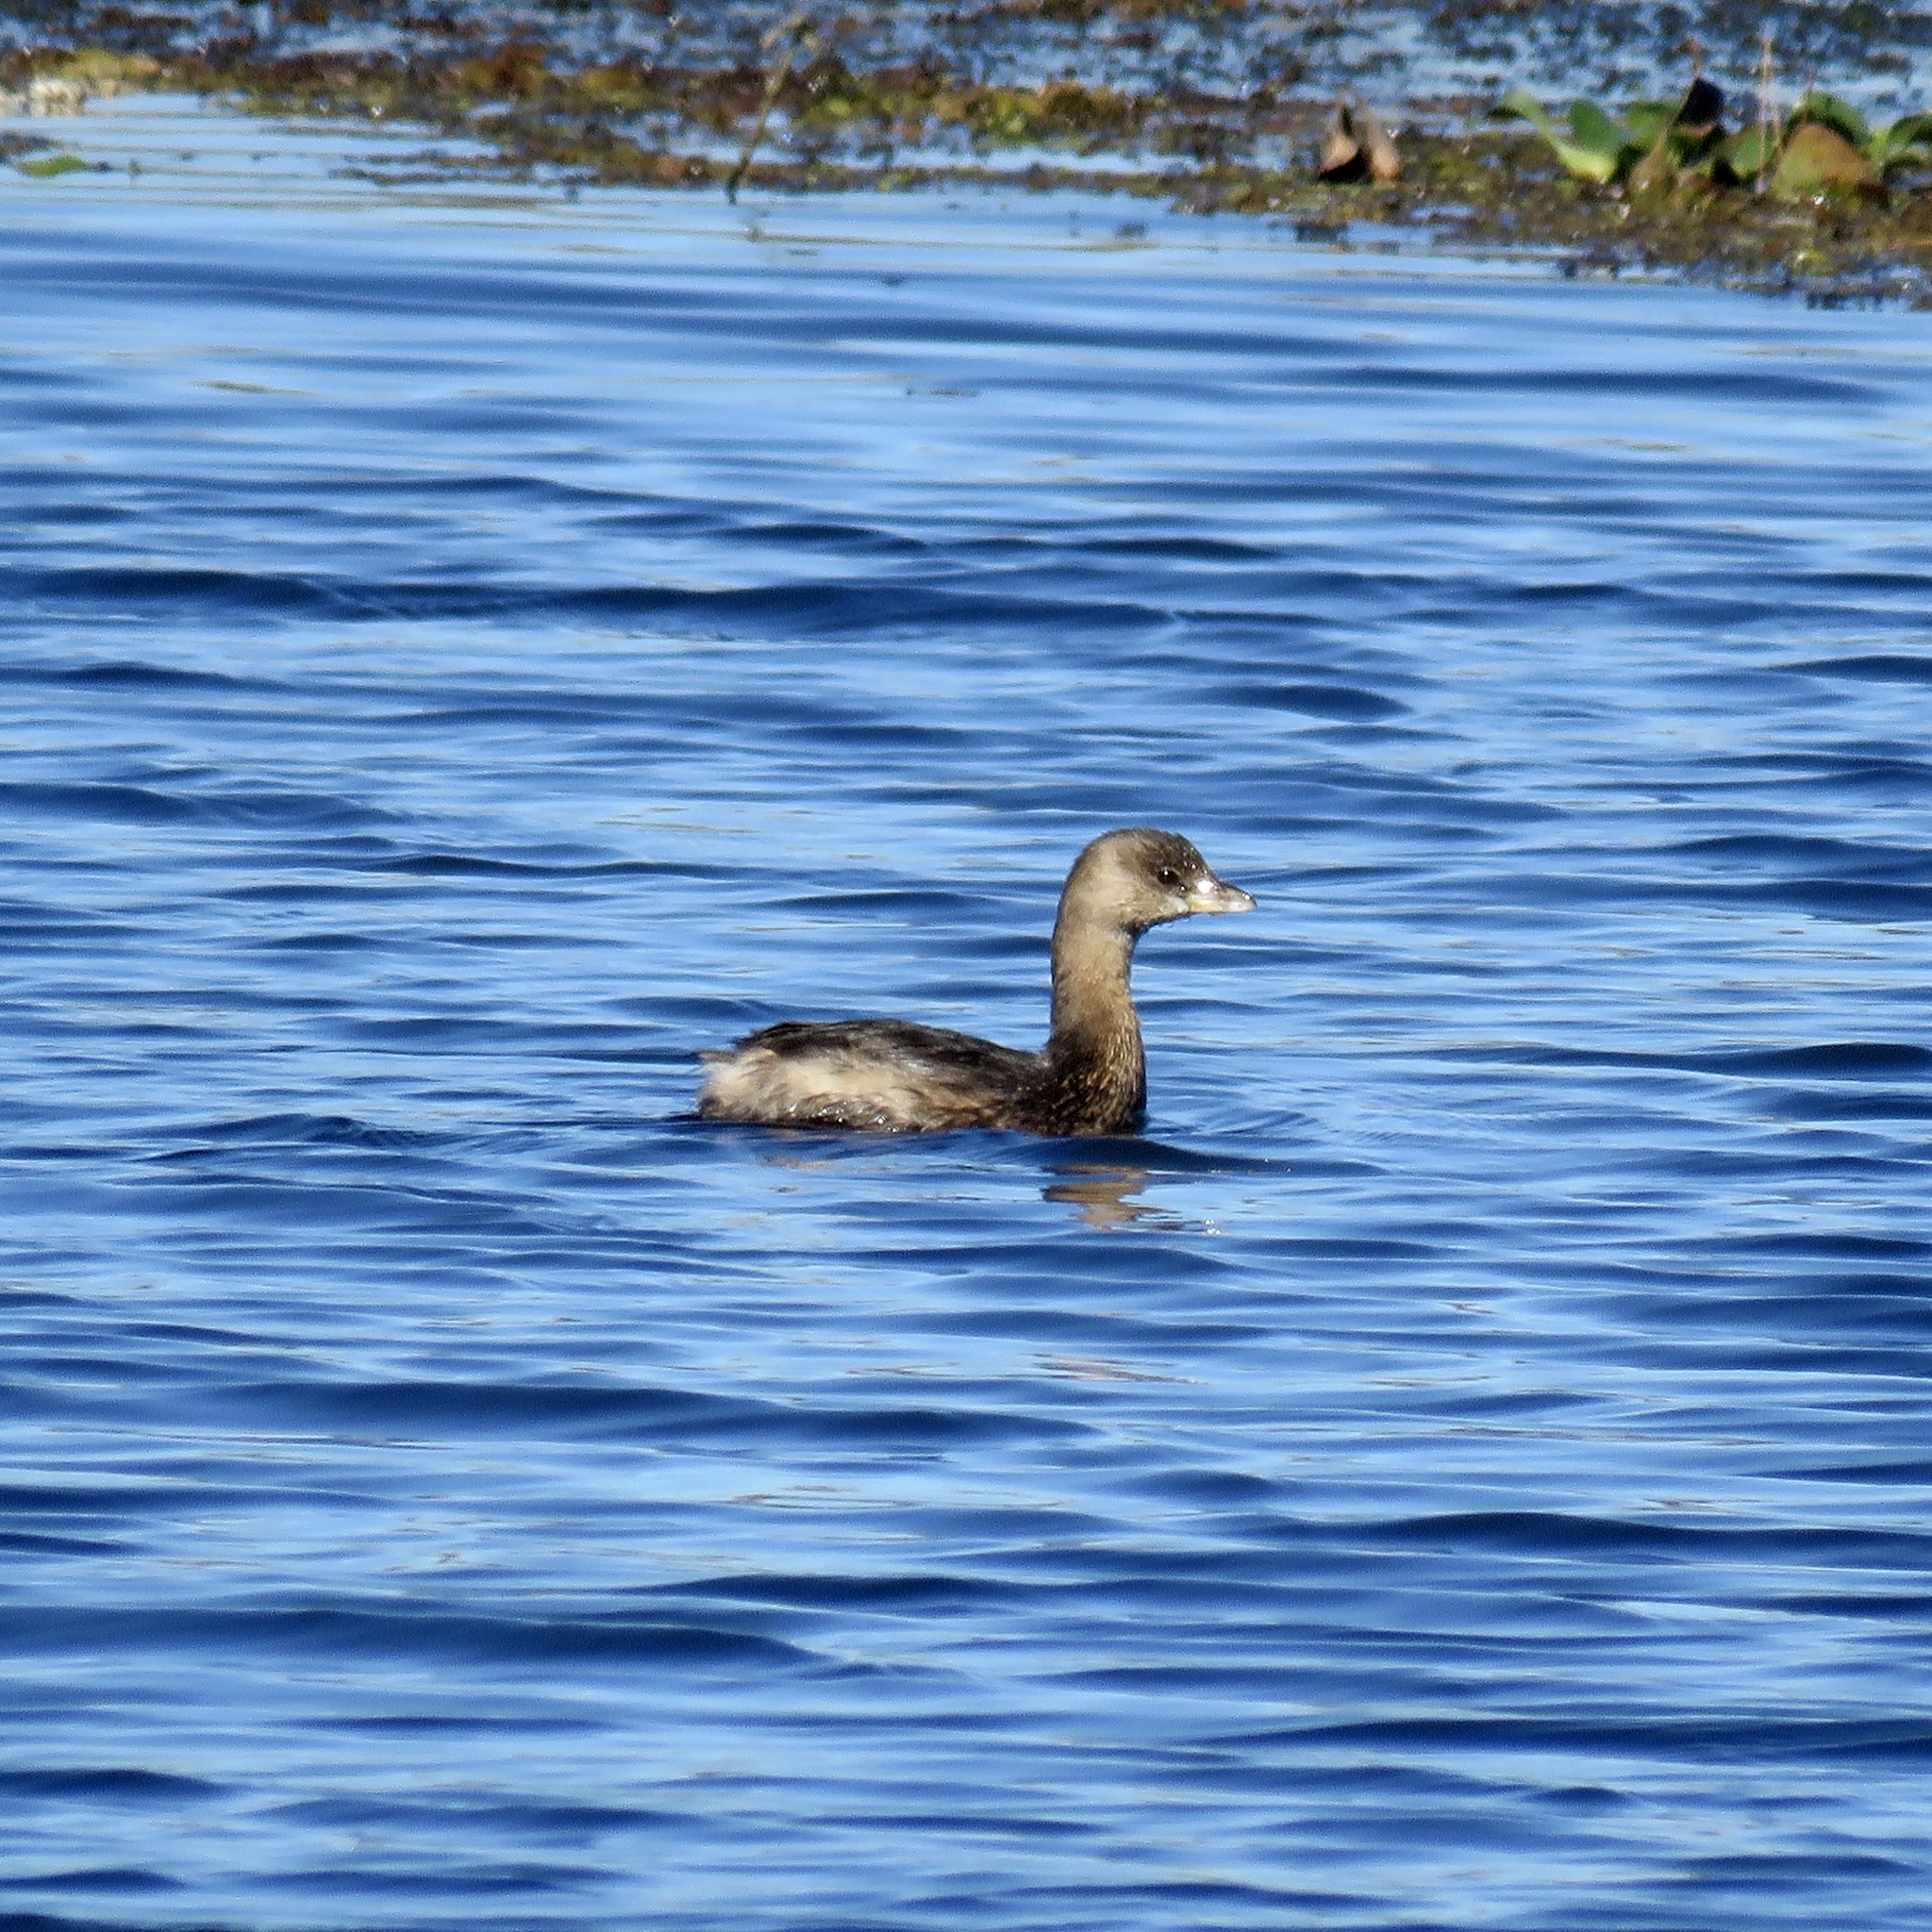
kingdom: Animalia
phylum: Chordata
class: Aves
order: Podicipediformes
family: Podicipedidae
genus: Podilymbus
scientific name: Podilymbus podiceps
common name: Pied-billed grebe
